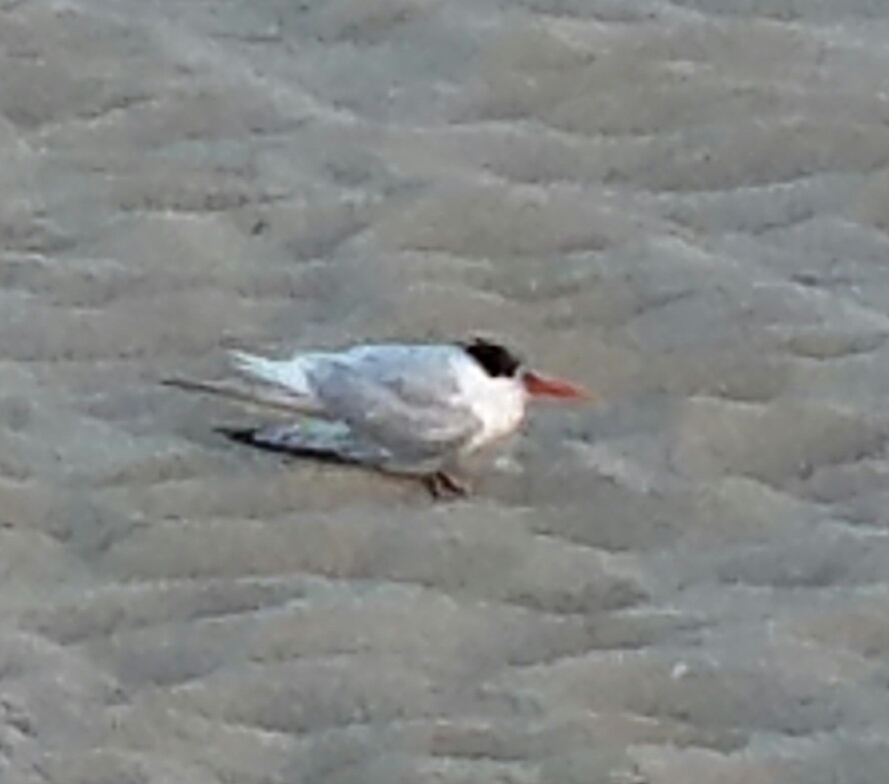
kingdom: Animalia
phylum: Chordata
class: Aves
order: Charadriiformes
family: Laridae
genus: Hydroprogne
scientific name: Hydroprogne caspia
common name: Caspian tern
